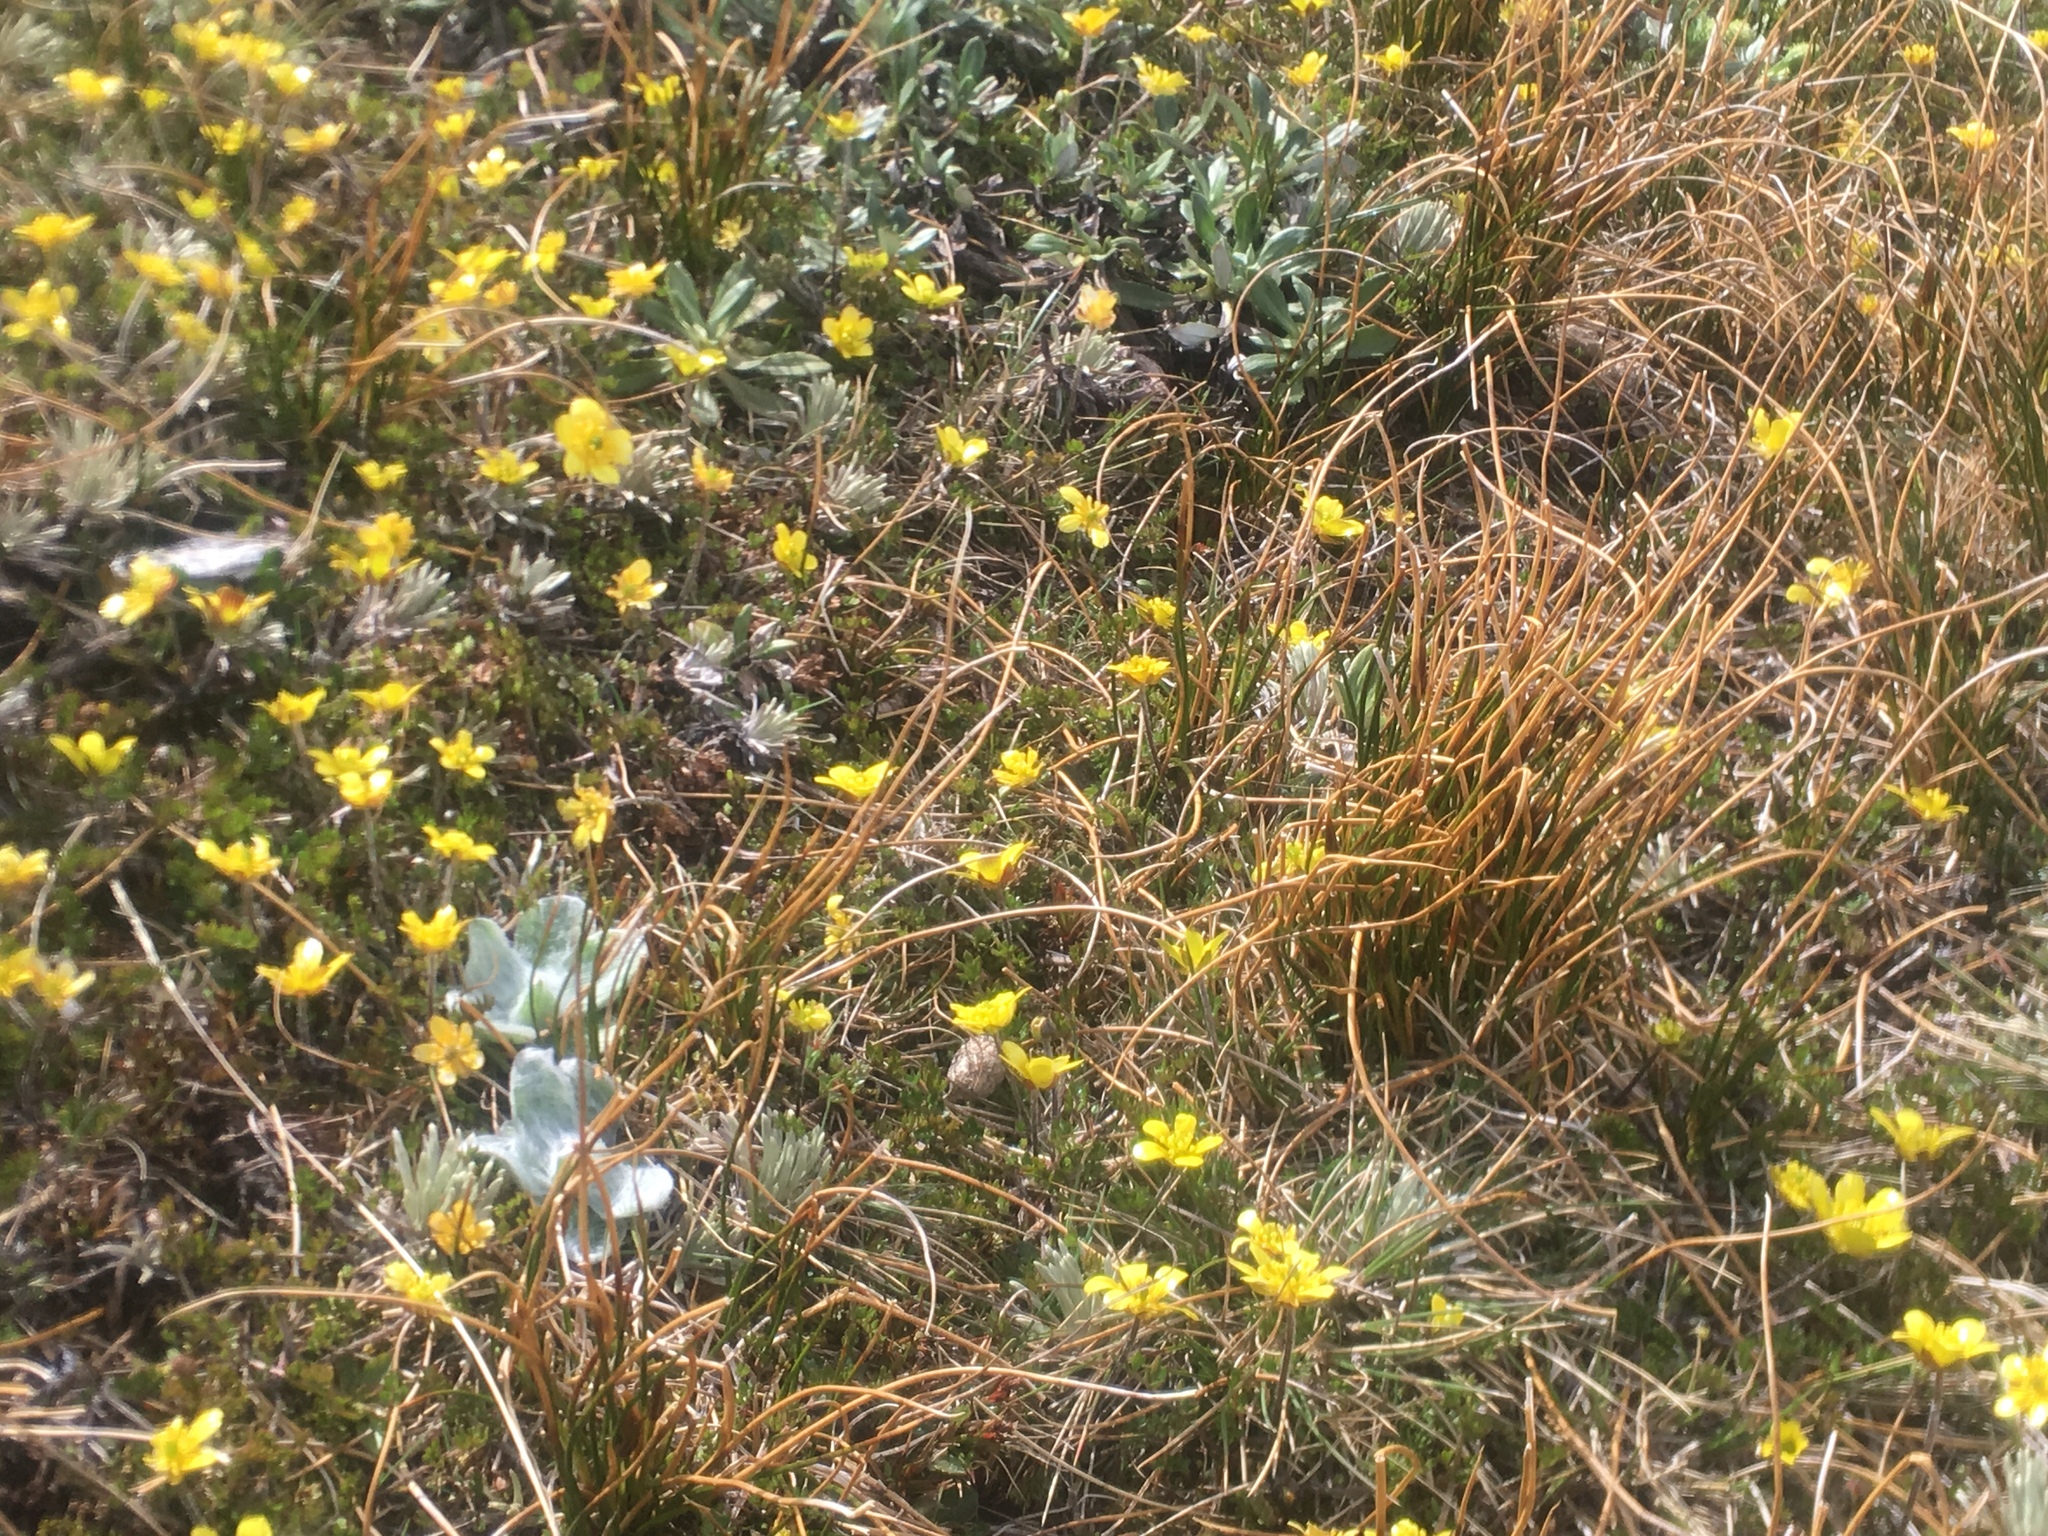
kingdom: Plantae
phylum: Tracheophyta
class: Magnoliopsida
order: Ranunculales
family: Ranunculaceae
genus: Ranunculus
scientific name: Ranunculus gracilipes
